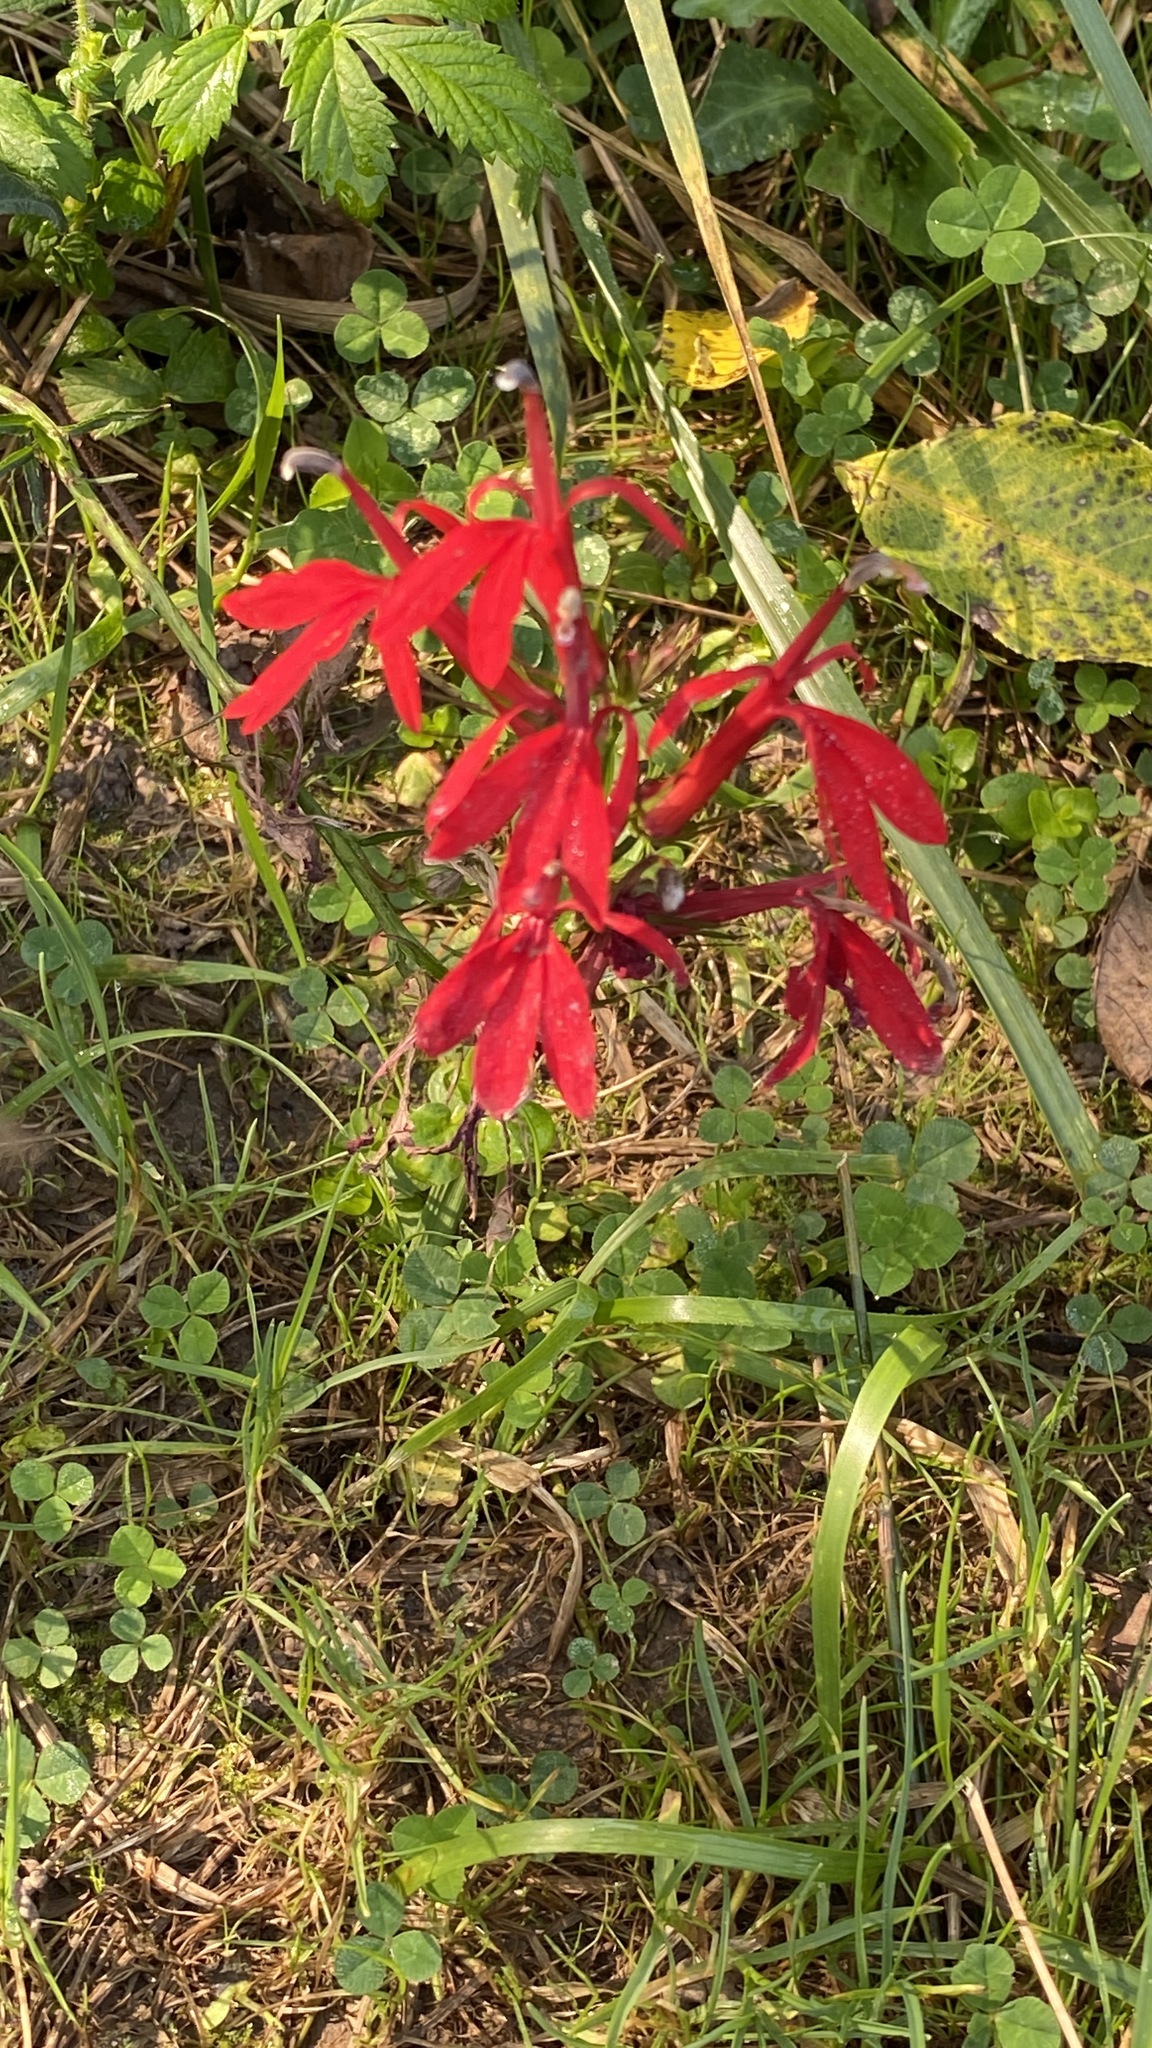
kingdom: Plantae
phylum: Tracheophyta
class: Magnoliopsida
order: Asterales
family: Campanulaceae
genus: Lobelia
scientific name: Lobelia cardinalis
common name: Cardinal flower
